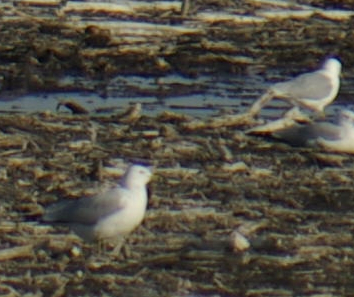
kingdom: Animalia
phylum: Chordata
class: Aves
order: Charadriiformes
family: Laridae
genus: Larus
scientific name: Larus delawarensis
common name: Ring-billed gull
